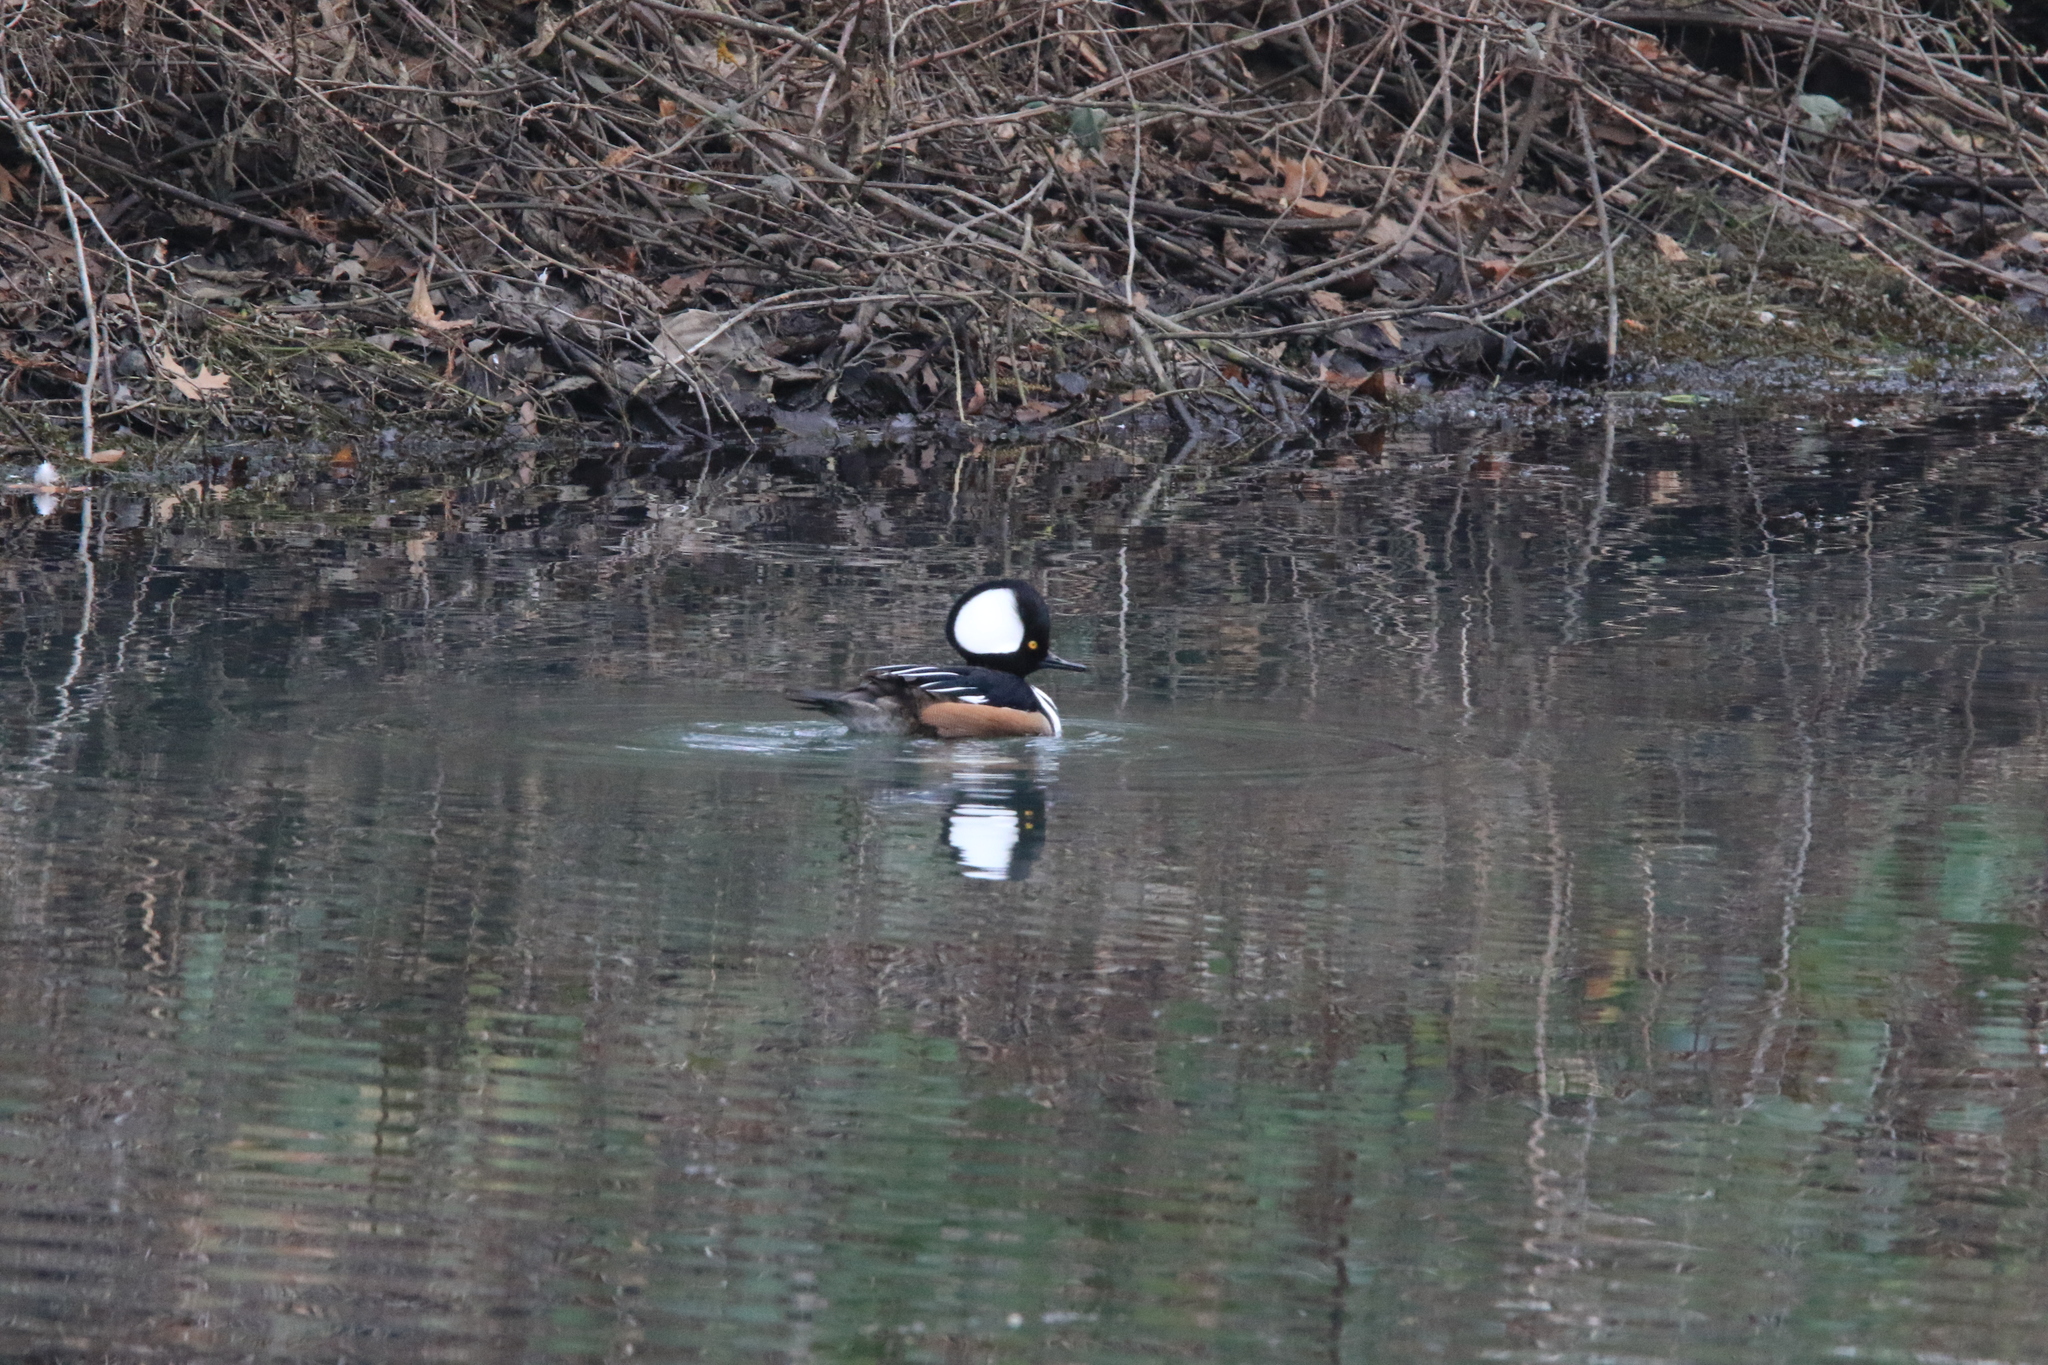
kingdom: Animalia
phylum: Chordata
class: Aves
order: Anseriformes
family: Anatidae
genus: Lophodytes
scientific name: Lophodytes cucullatus
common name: Hooded merganser
